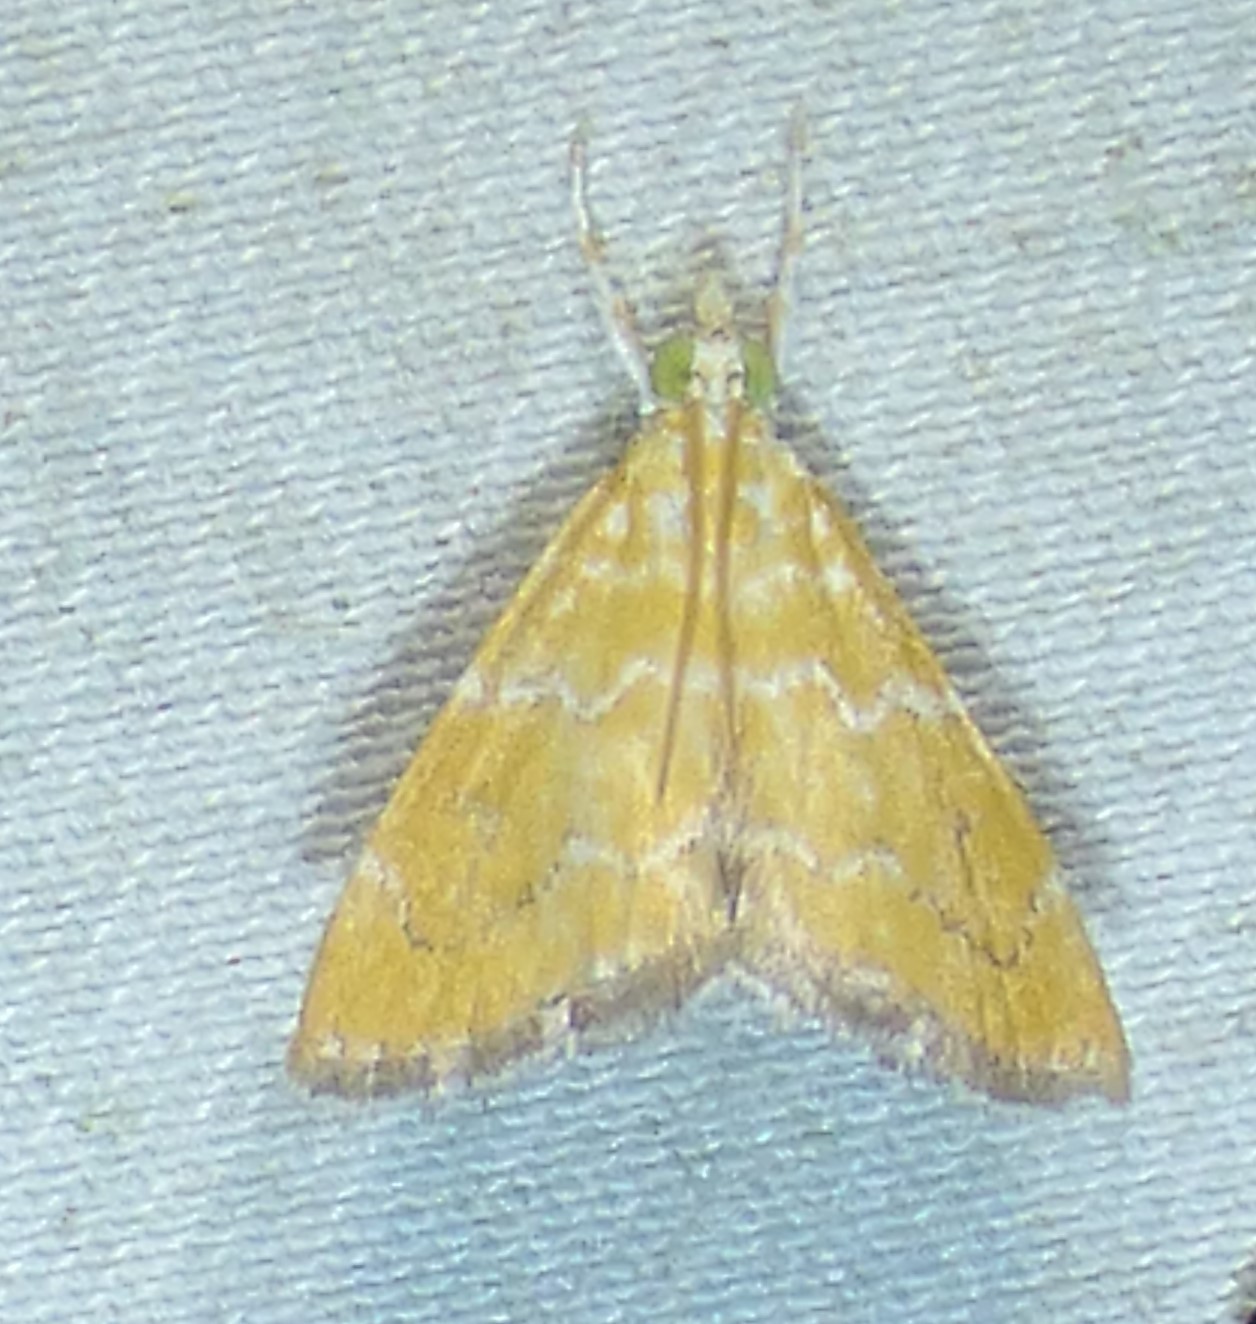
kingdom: Animalia
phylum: Arthropoda
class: Insecta
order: Lepidoptera
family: Crambidae
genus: Xanthophysa
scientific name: Xanthophysa psychicalis
